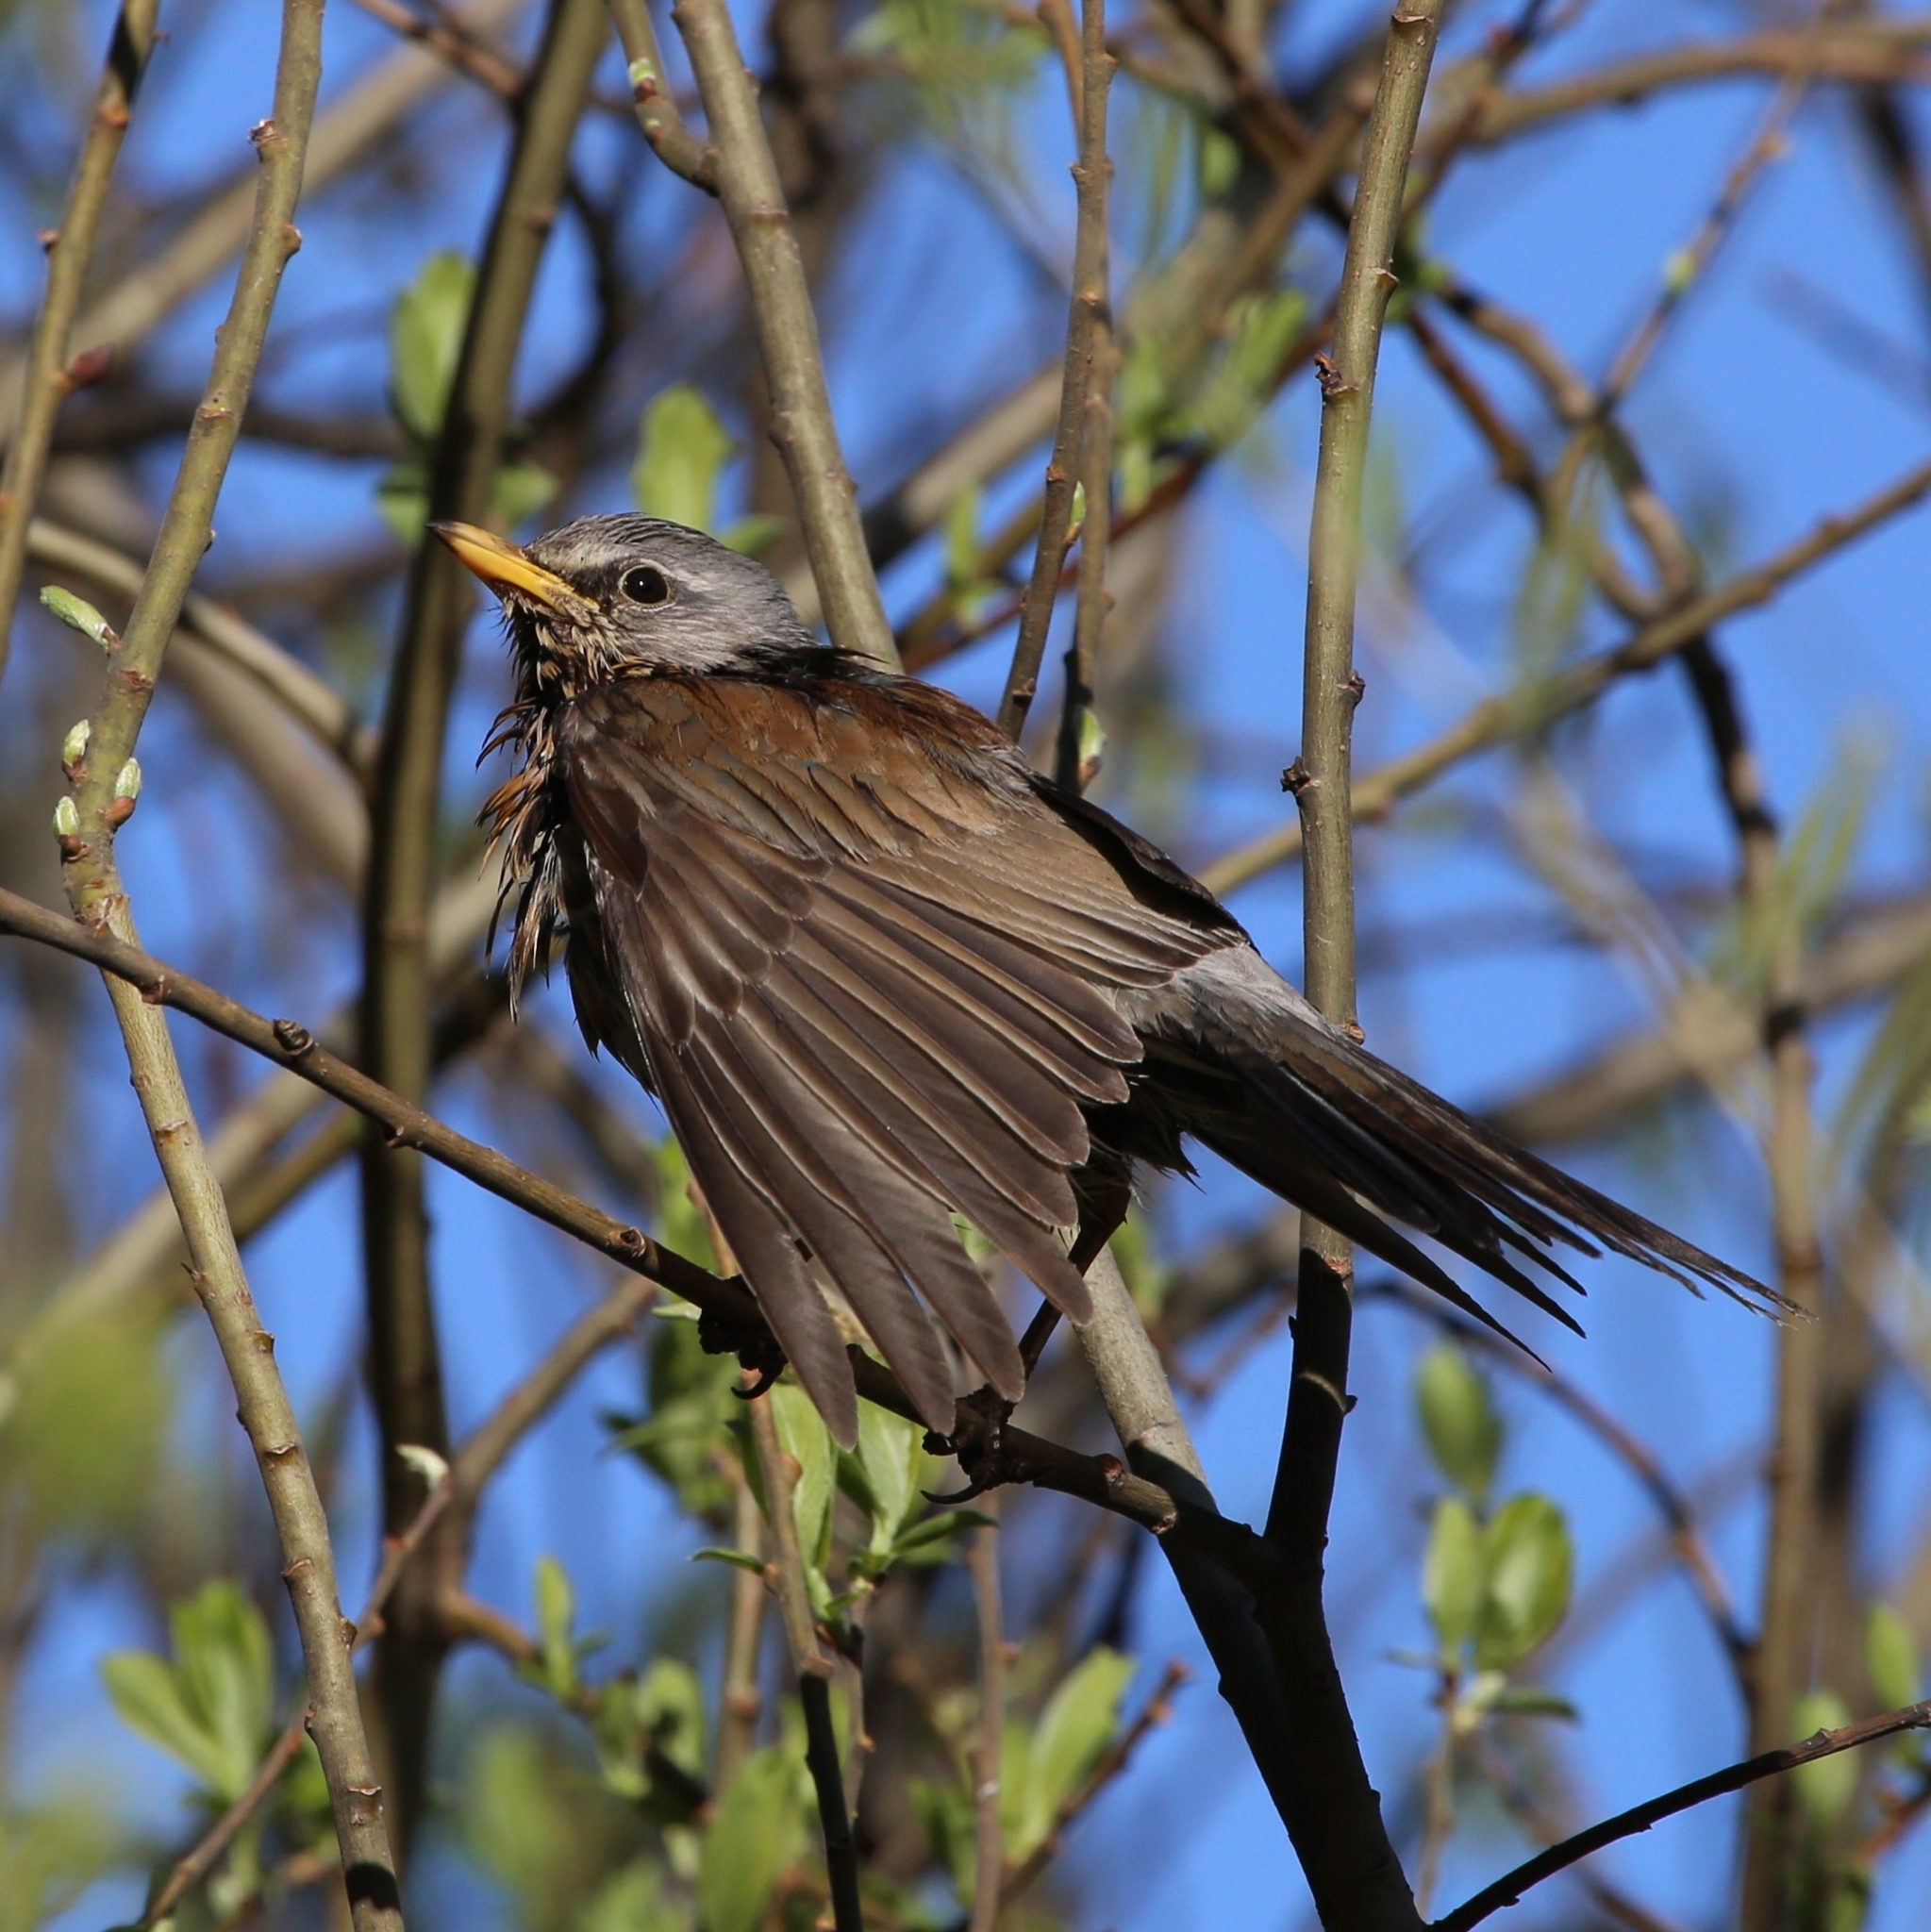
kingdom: Animalia
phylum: Chordata
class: Aves
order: Passeriformes
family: Turdidae
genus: Turdus
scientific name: Turdus pilaris
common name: Fieldfare
